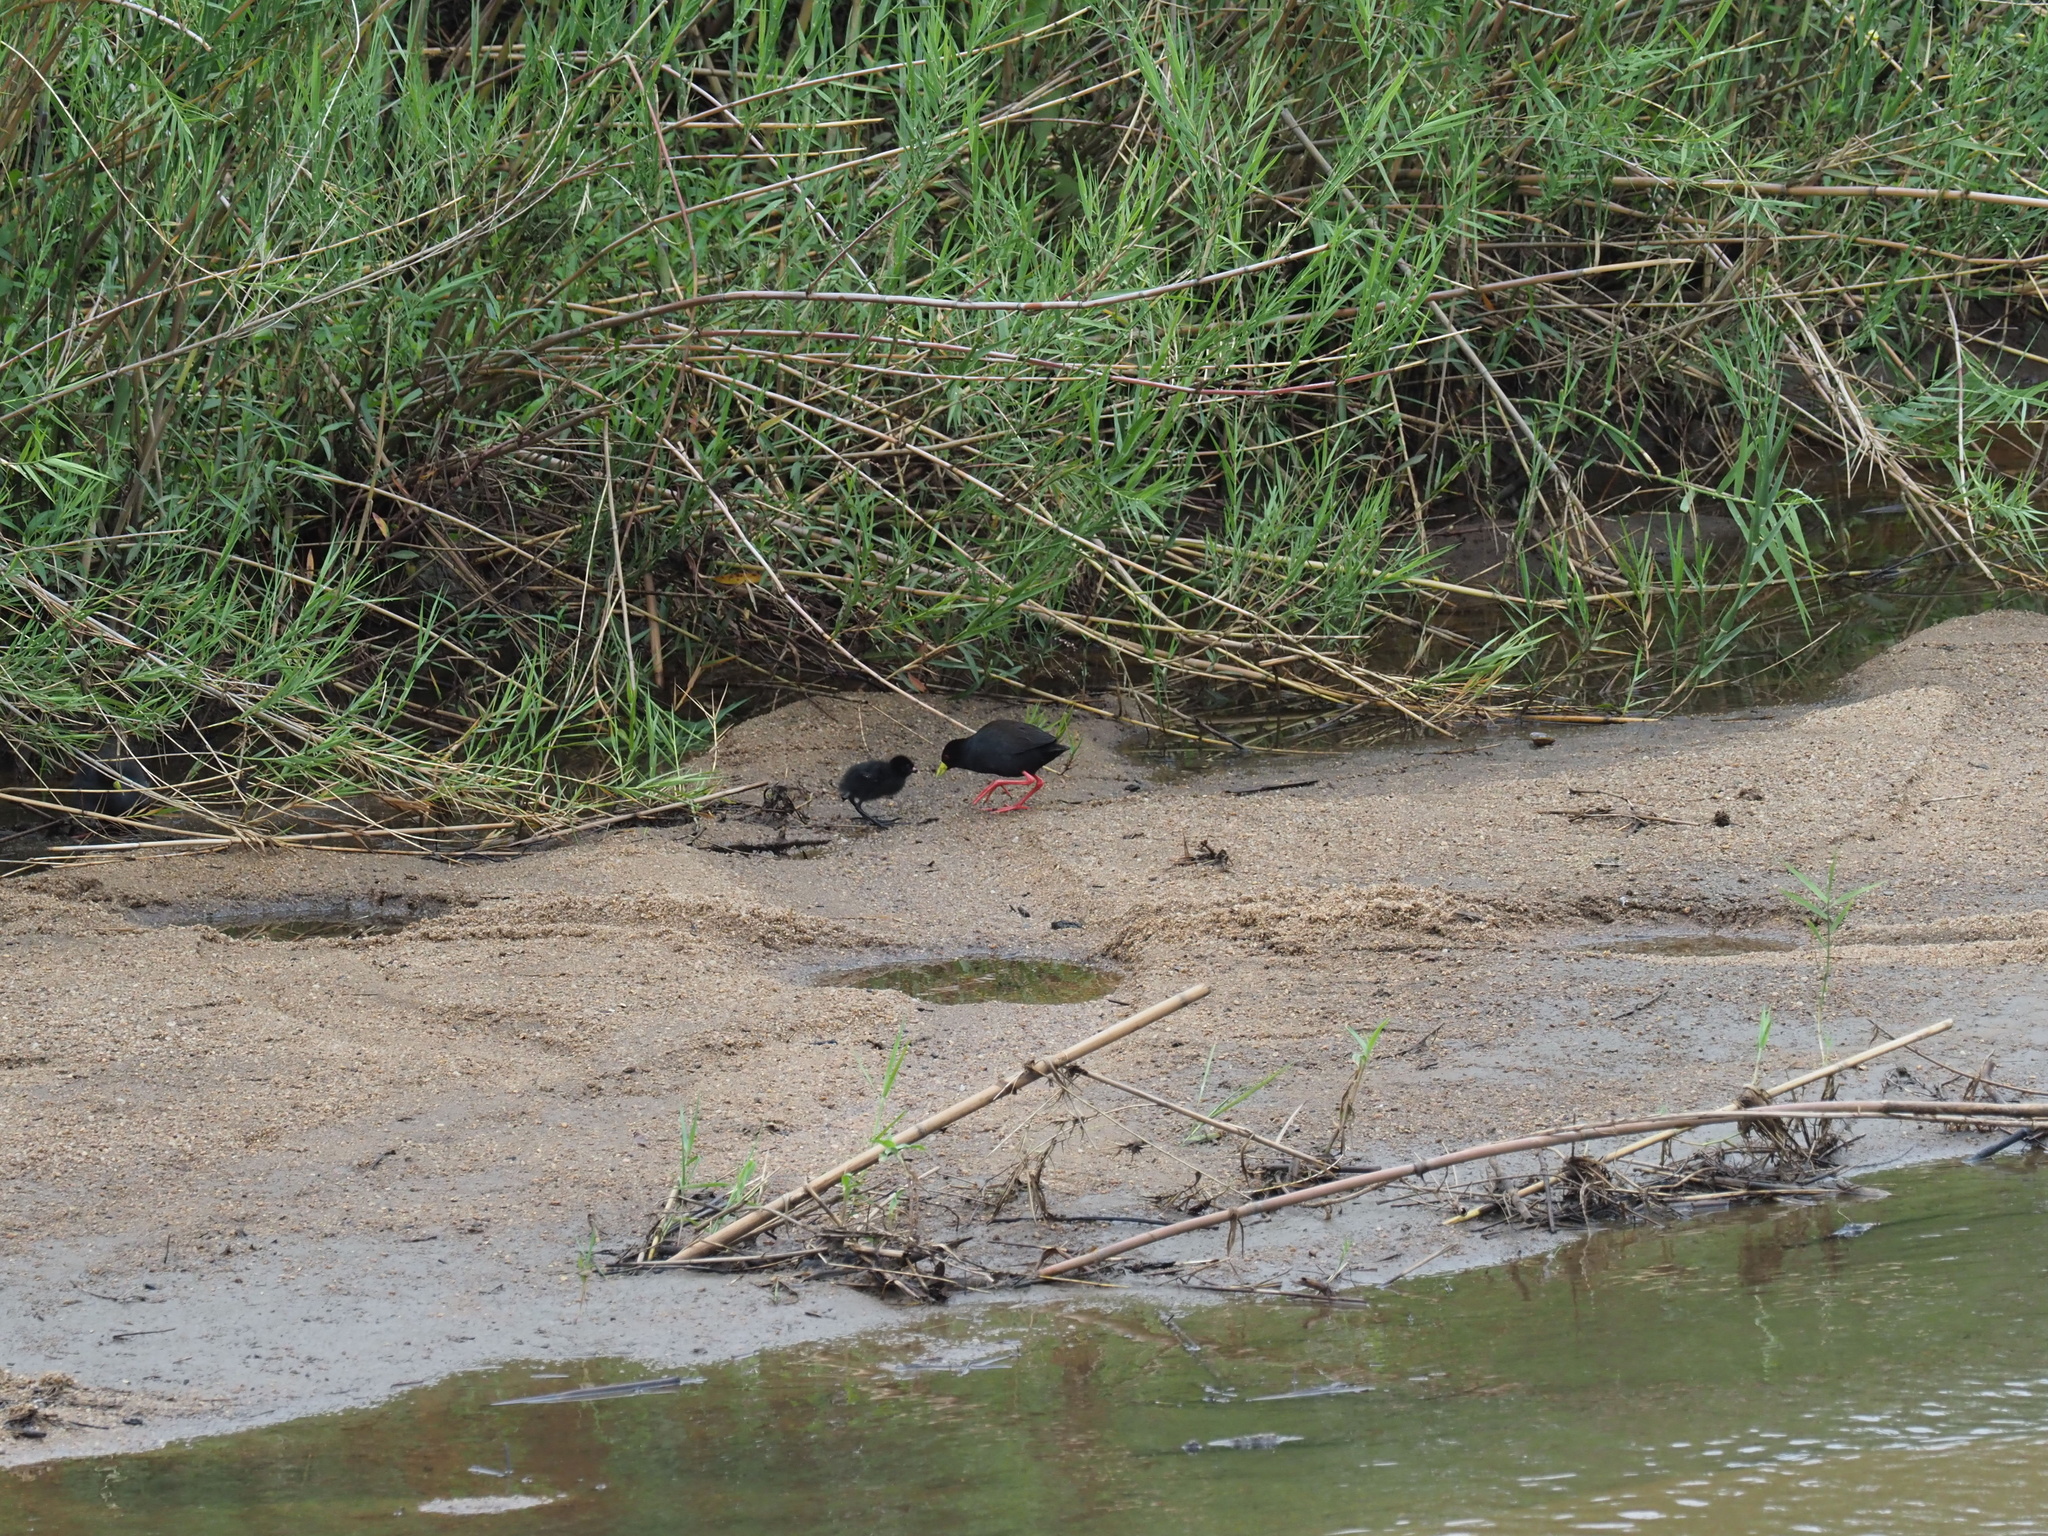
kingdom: Animalia
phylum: Chordata
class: Aves
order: Gruiformes
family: Rallidae
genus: Amaurornis
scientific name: Amaurornis flavirostra
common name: Black crake
